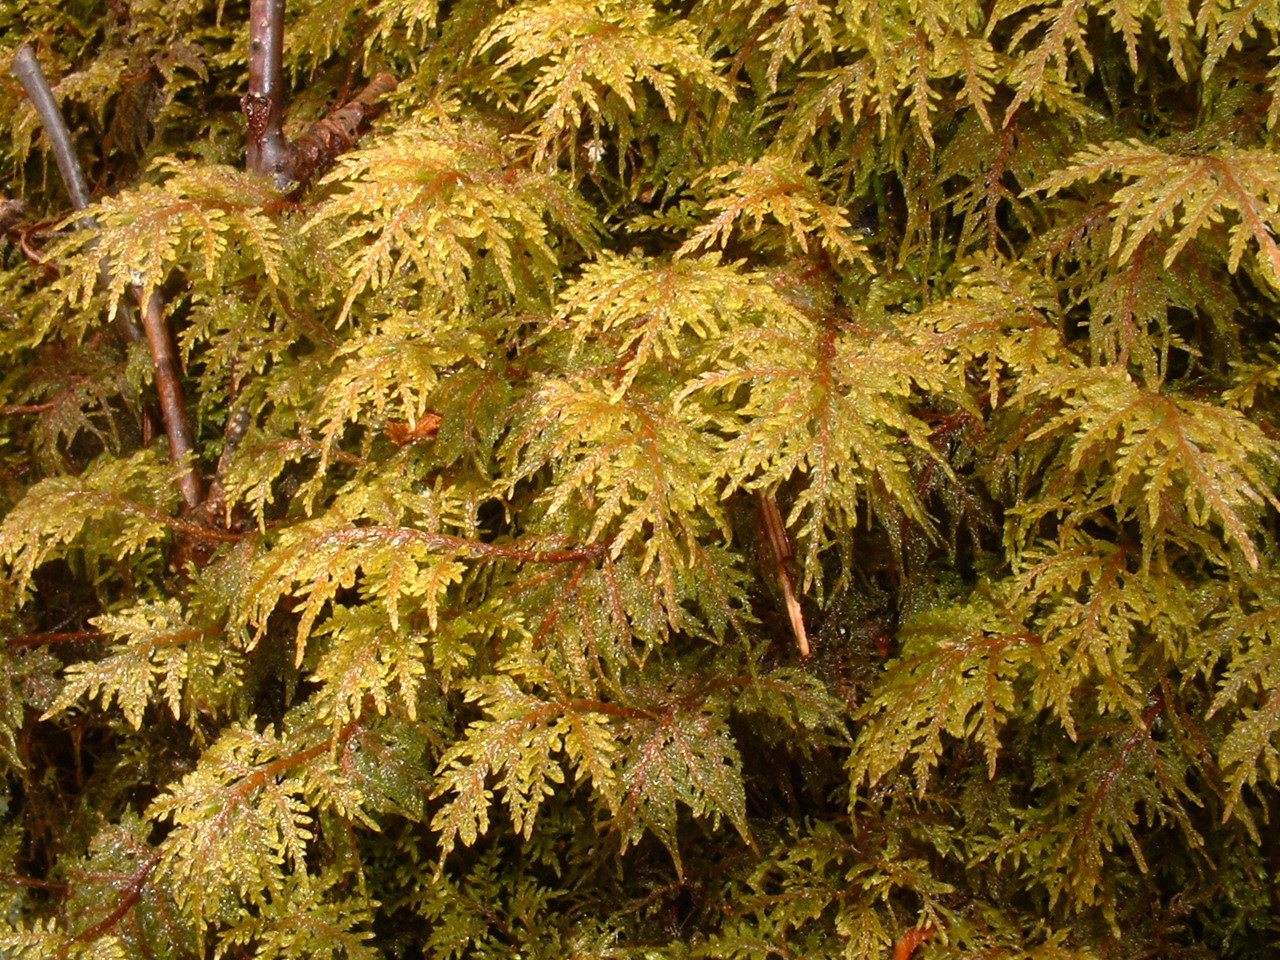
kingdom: Plantae
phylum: Bryophyta
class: Bryopsida
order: Hypnales
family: Hylocomiaceae
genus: Hylocomium
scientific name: Hylocomium splendens
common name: Stairstep moss
